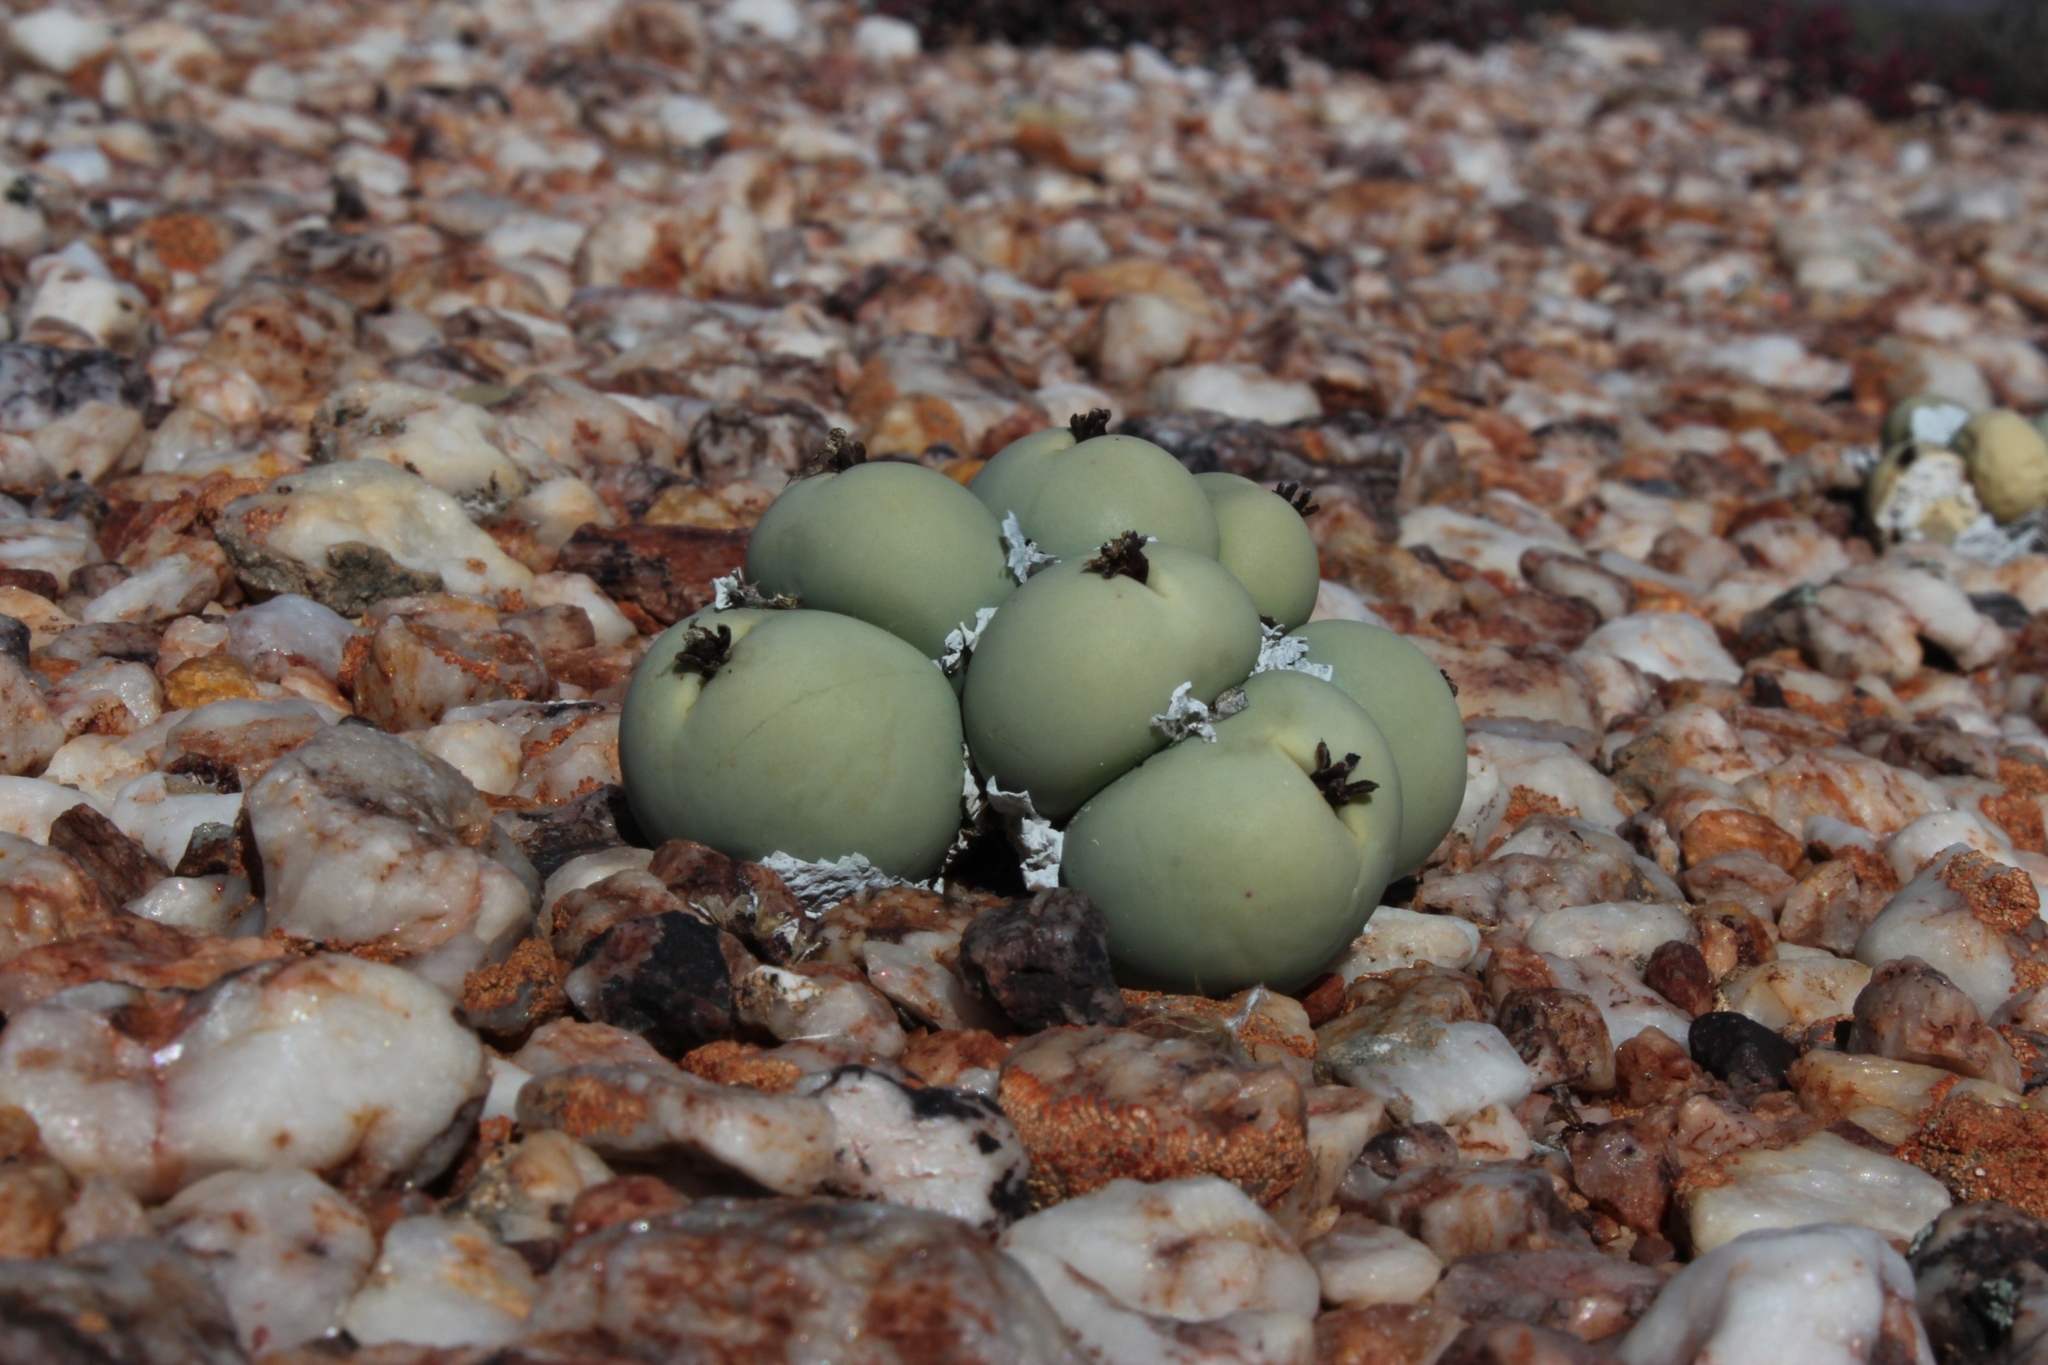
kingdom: Plantae
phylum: Tracheophyta
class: Magnoliopsida
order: Caryophyllales
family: Aizoaceae
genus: Conophytum
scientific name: Conophytum calculus
